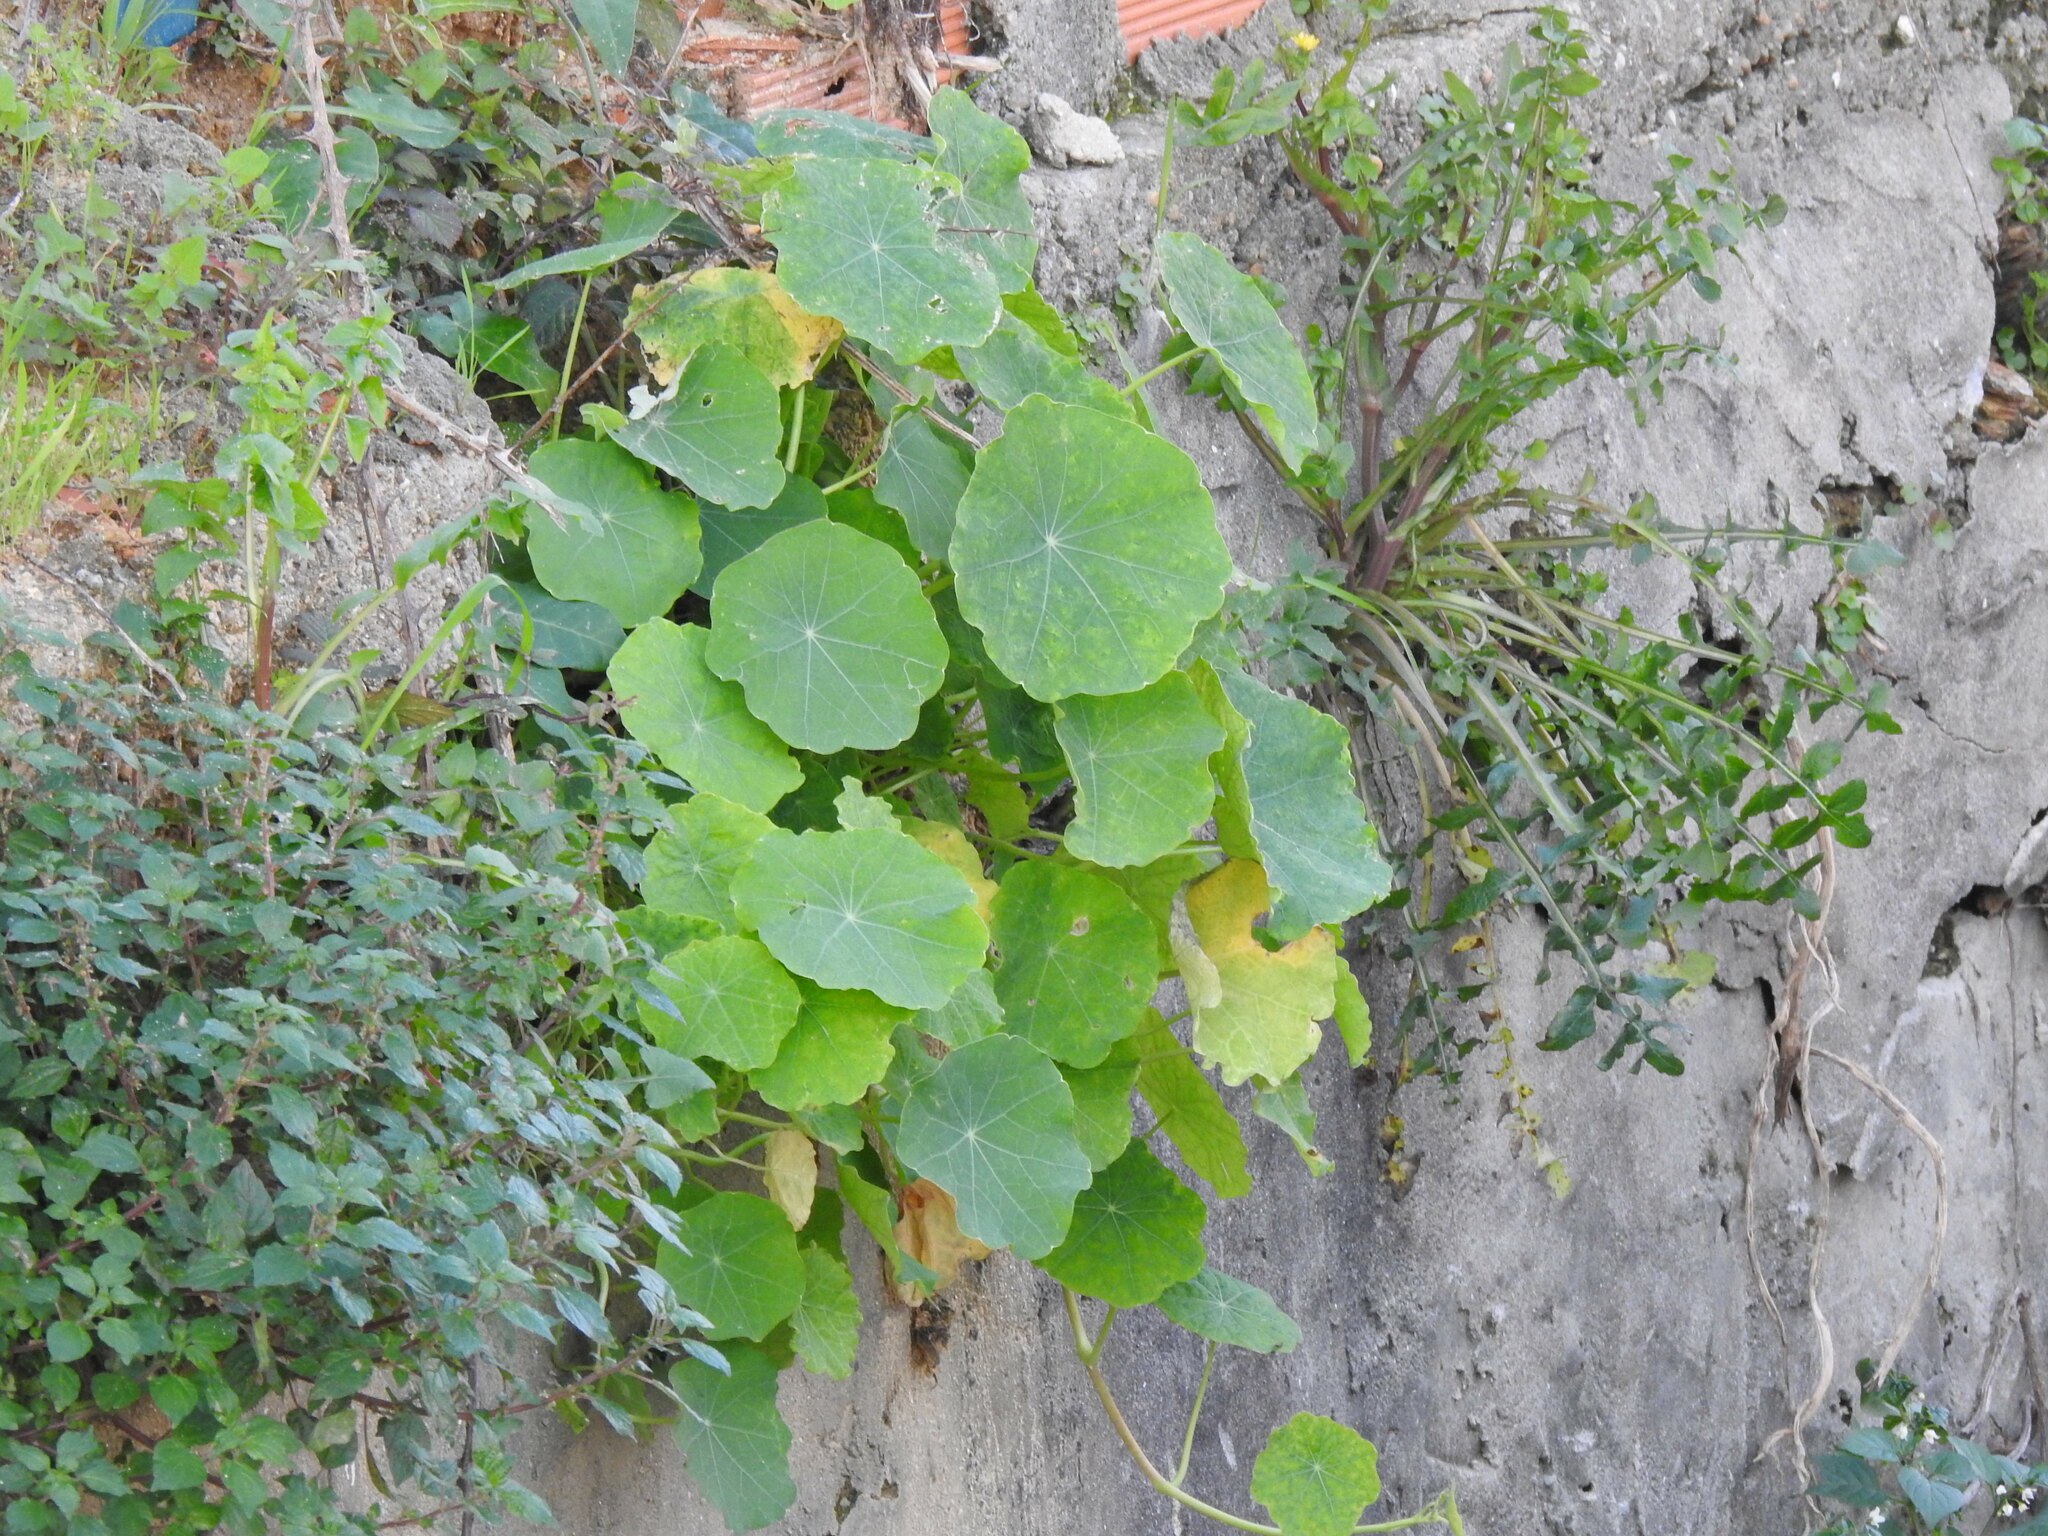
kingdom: Plantae
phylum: Tracheophyta
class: Magnoliopsida
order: Brassicales
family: Tropaeolaceae
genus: Tropaeolum
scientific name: Tropaeolum majus
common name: Nasturtium
